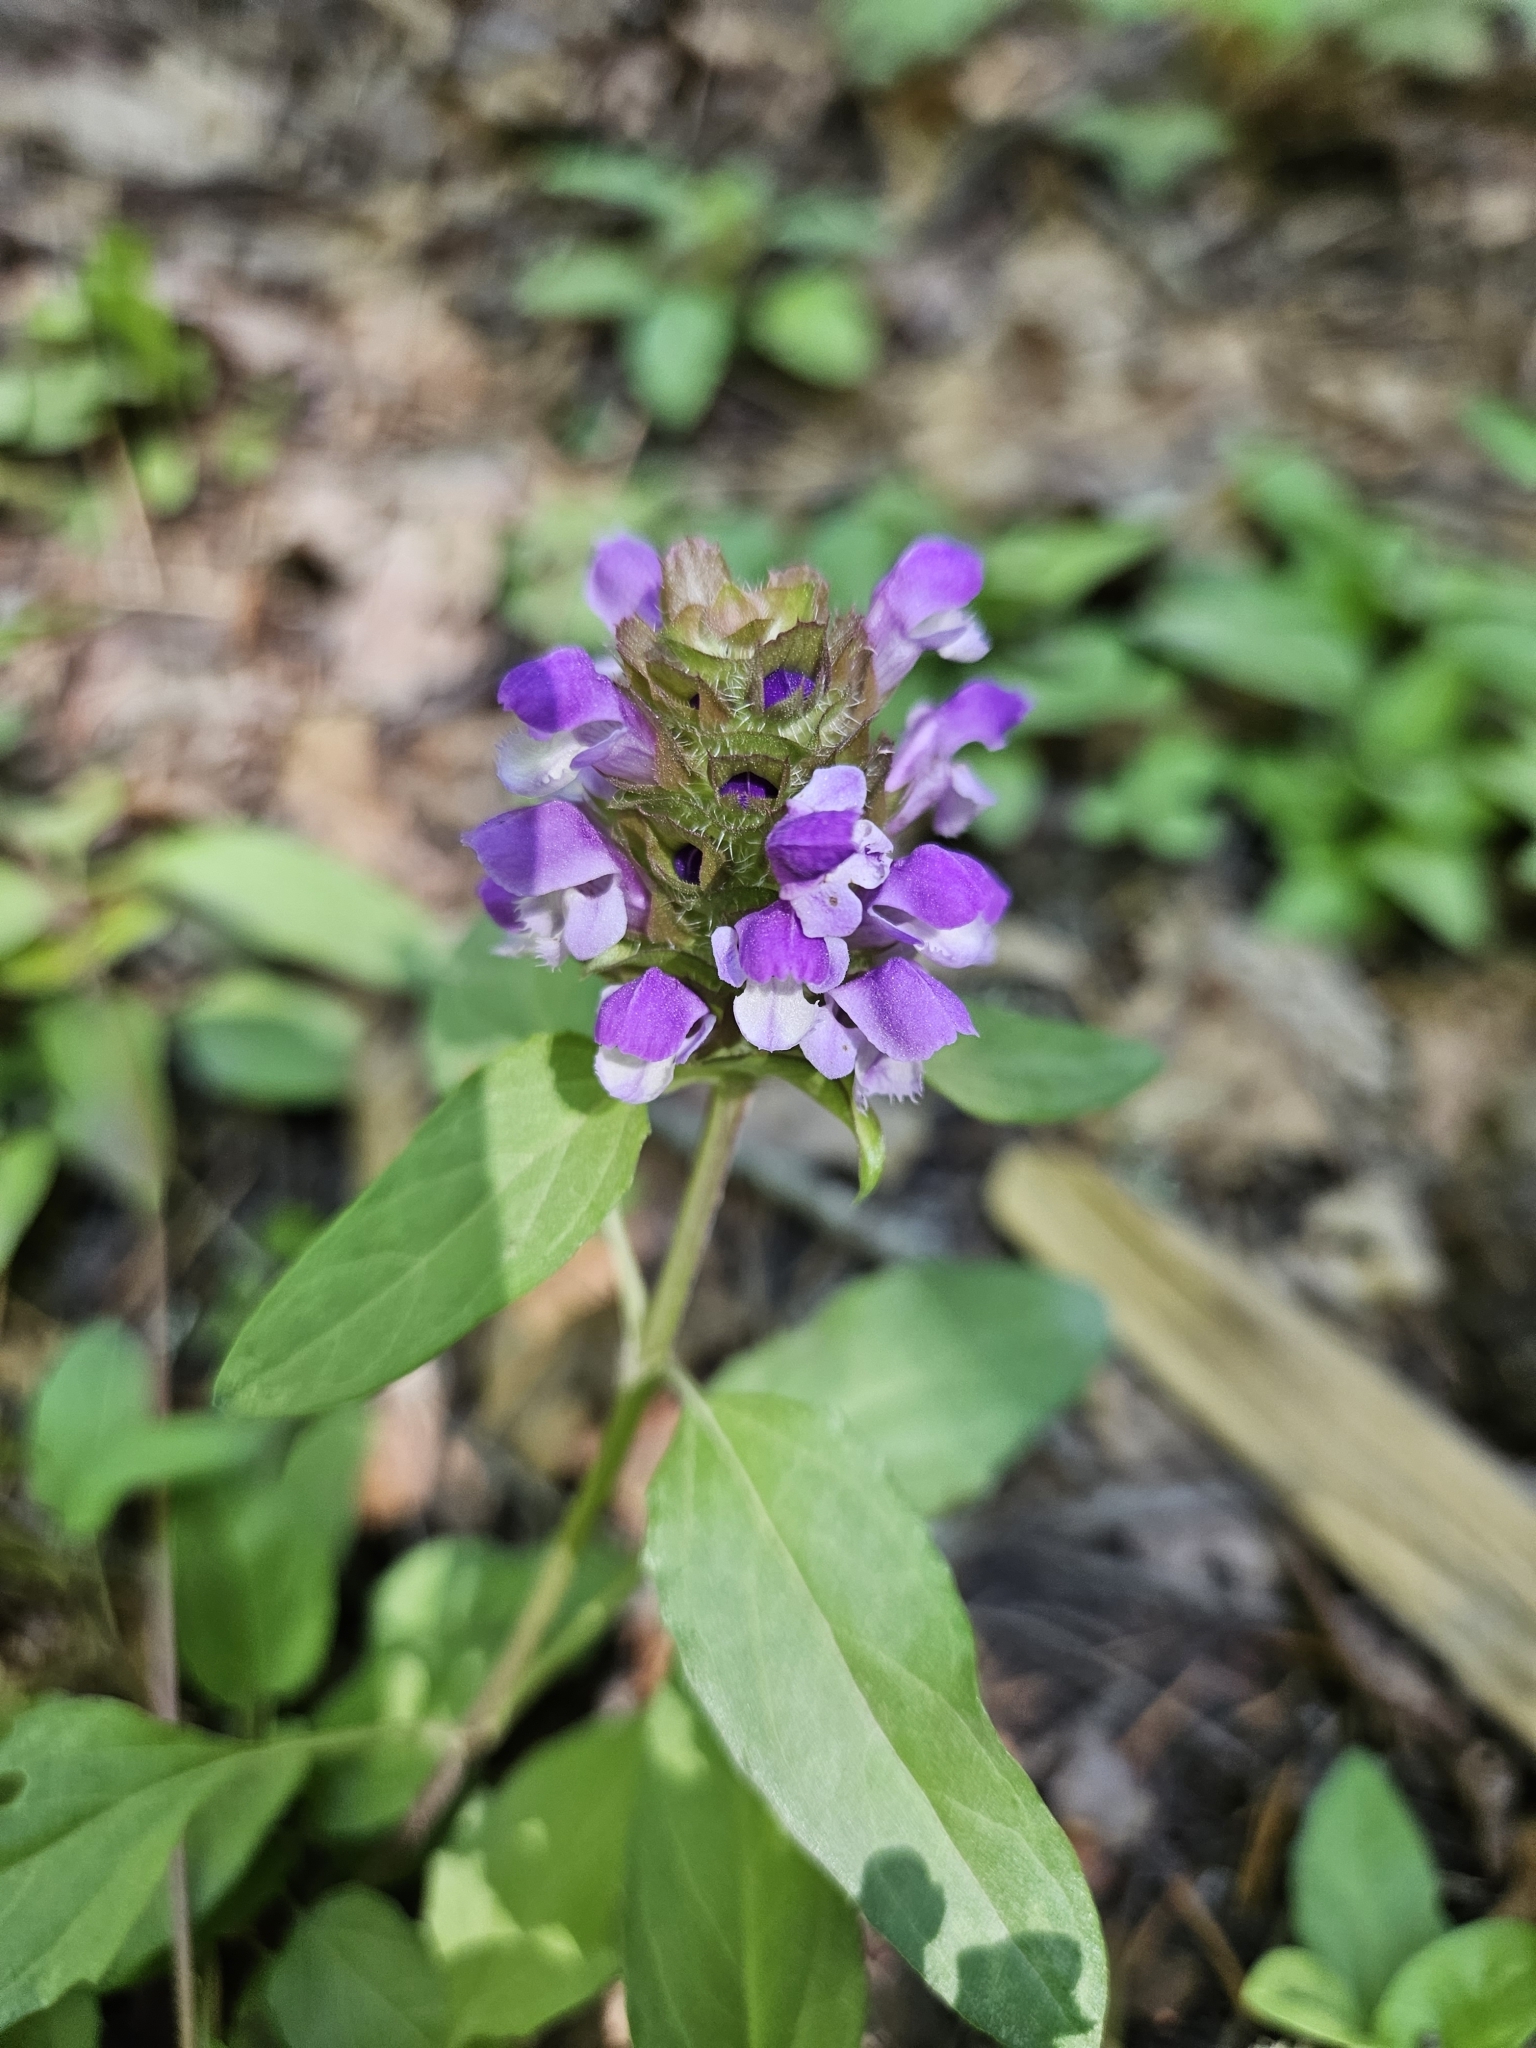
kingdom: Plantae
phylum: Tracheophyta
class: Magnoliopsida
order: Lamiales
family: Lamiaceae
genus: Prunella
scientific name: Prunella vulgaris
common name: Heal-all
